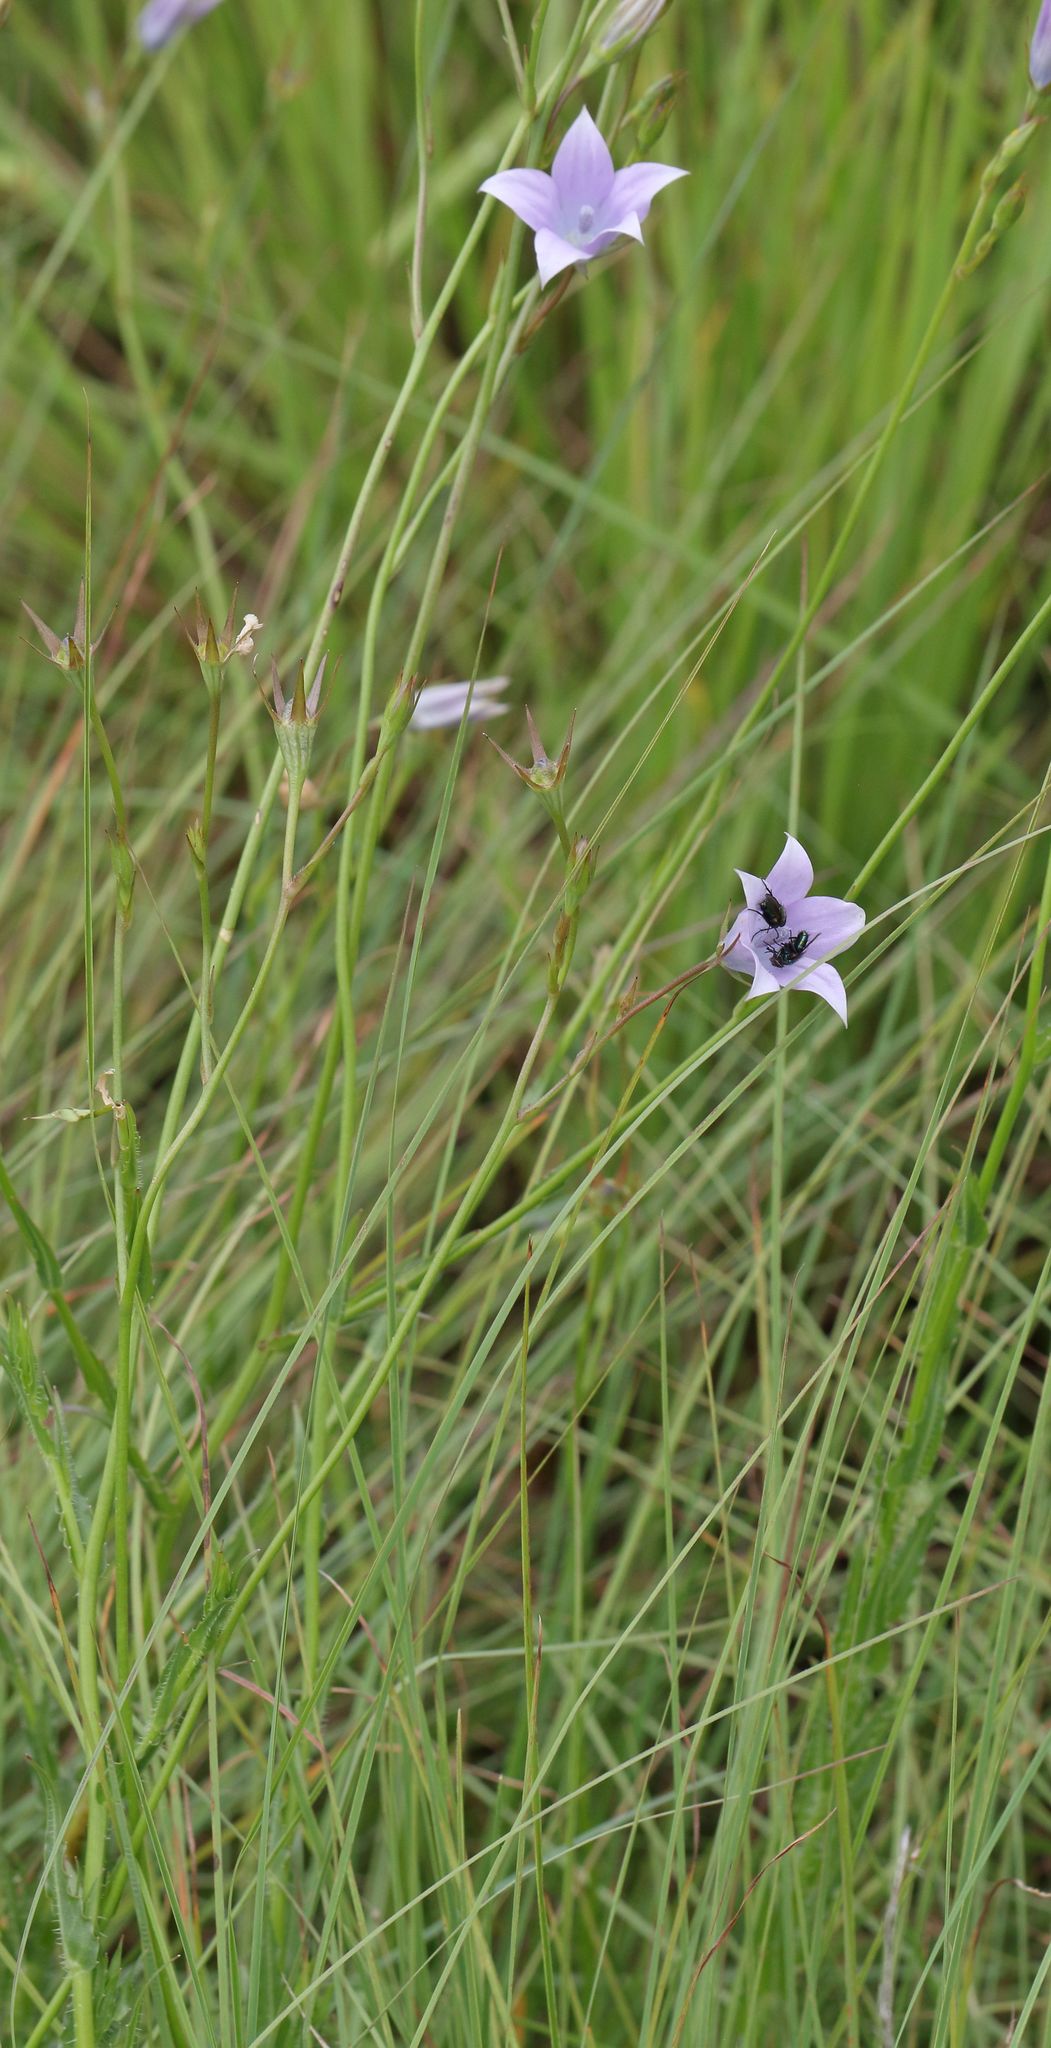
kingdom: Plantae
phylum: Tracheophyta
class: Magnoliopsida
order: Asterales
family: Campanulaceae
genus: Wahlenbergia
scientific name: Wahlenbergia krebsii
